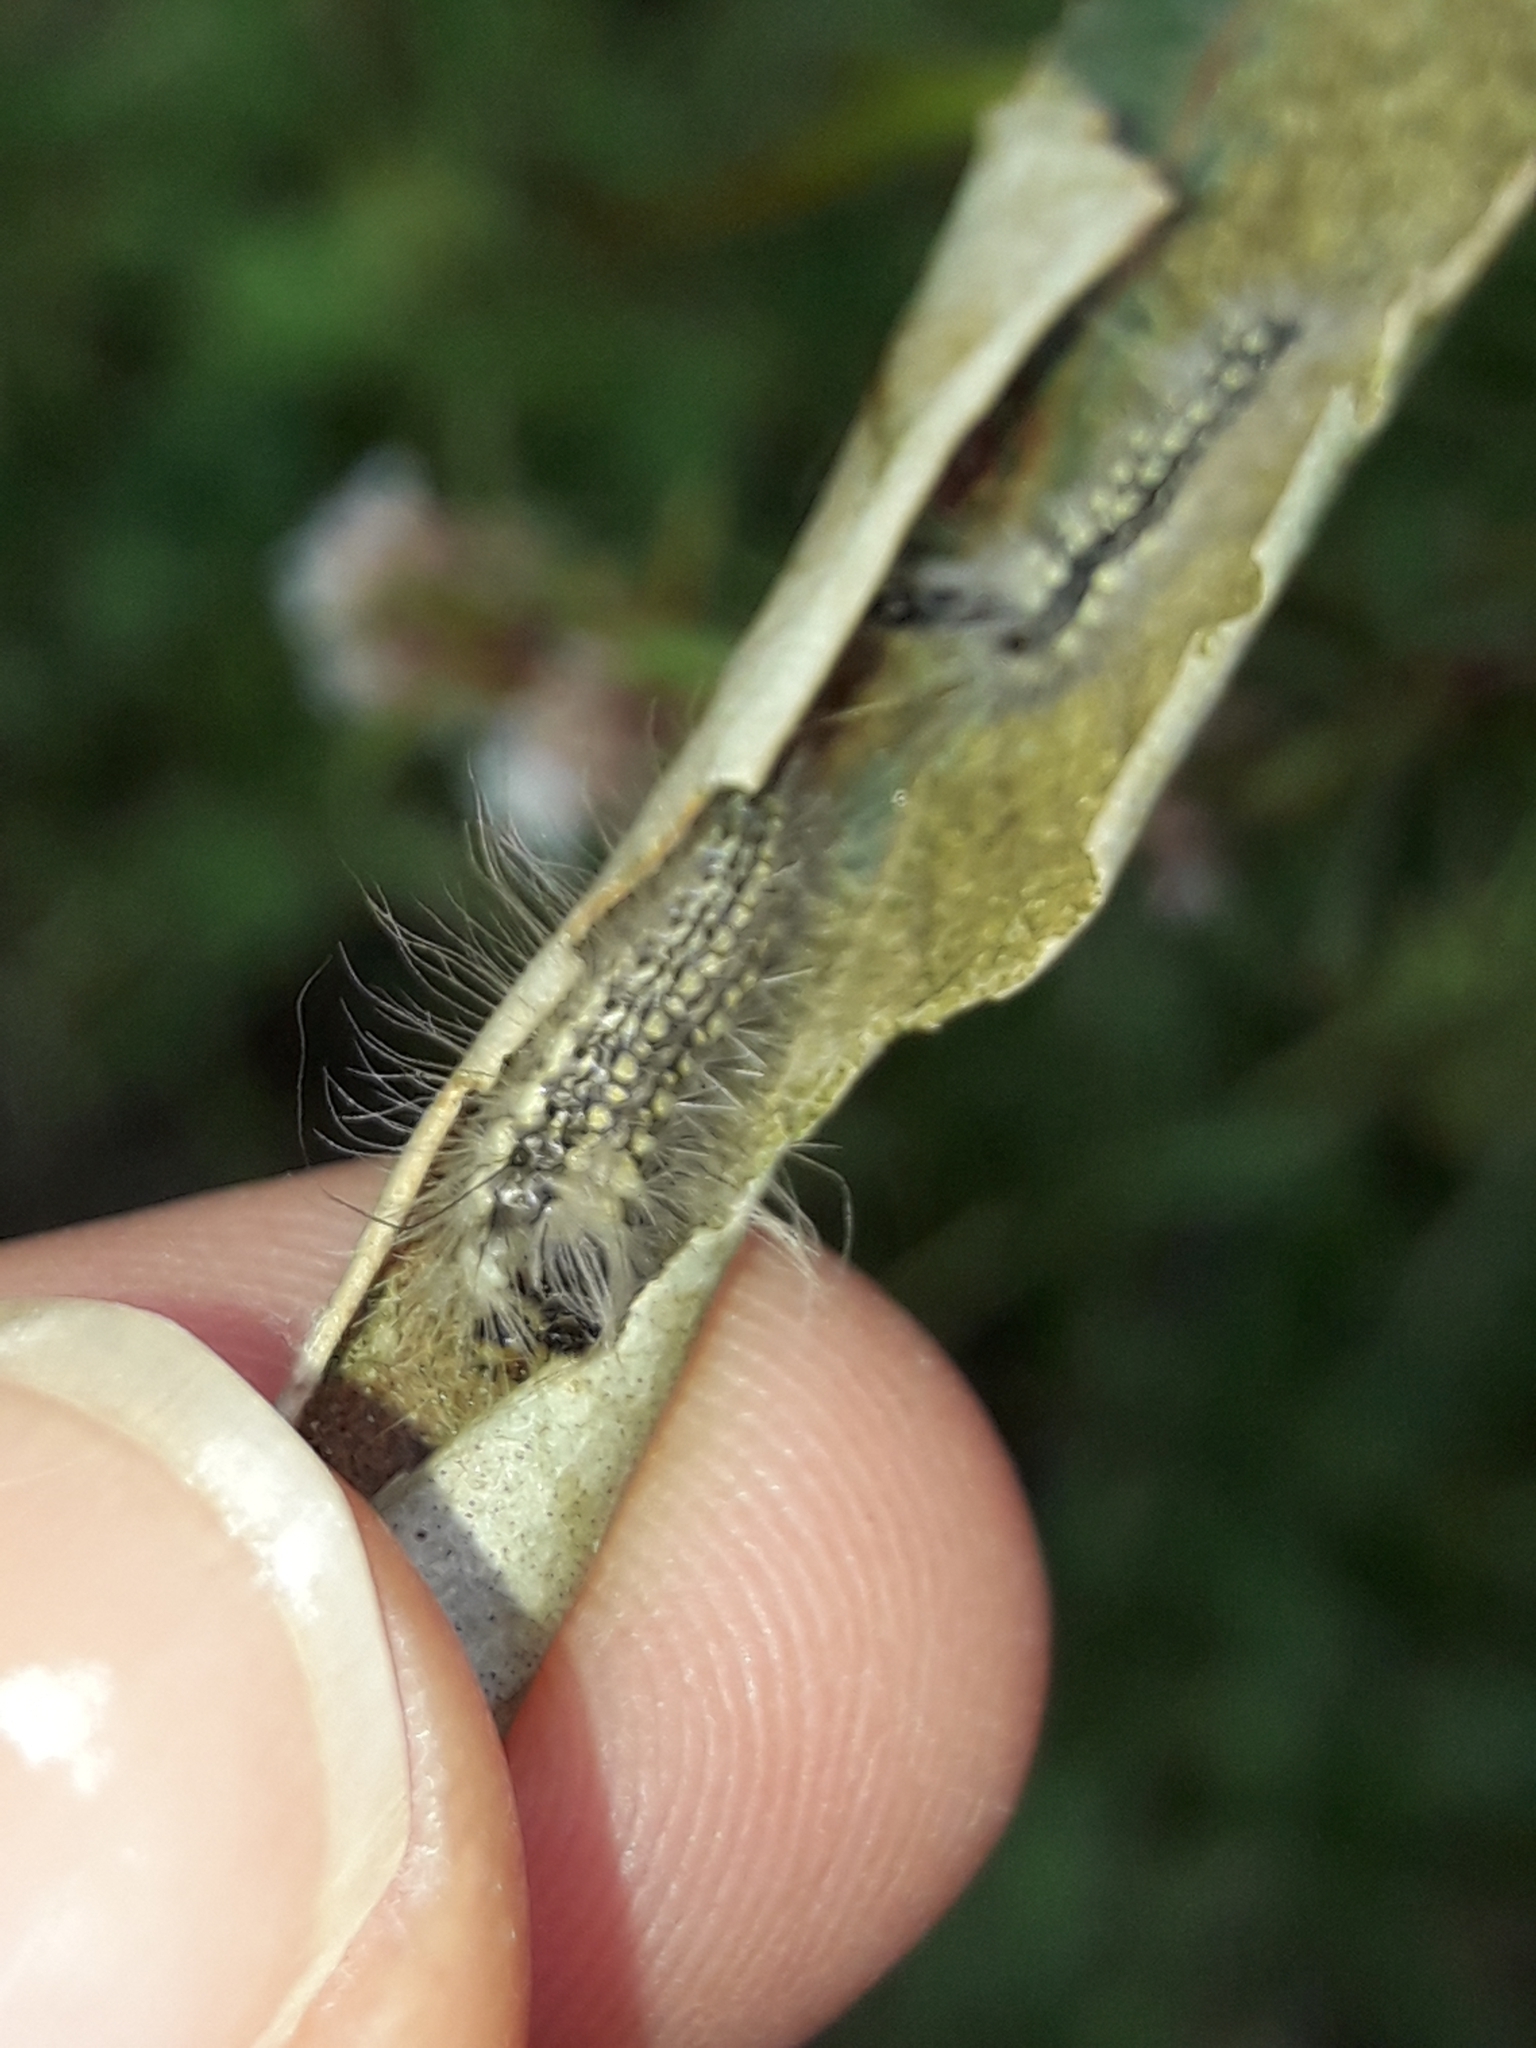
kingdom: Animalia
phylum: Arthropoda
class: Insecta
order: Lepidoptera
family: Nolidae
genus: Uraba
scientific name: Uraba lugens
